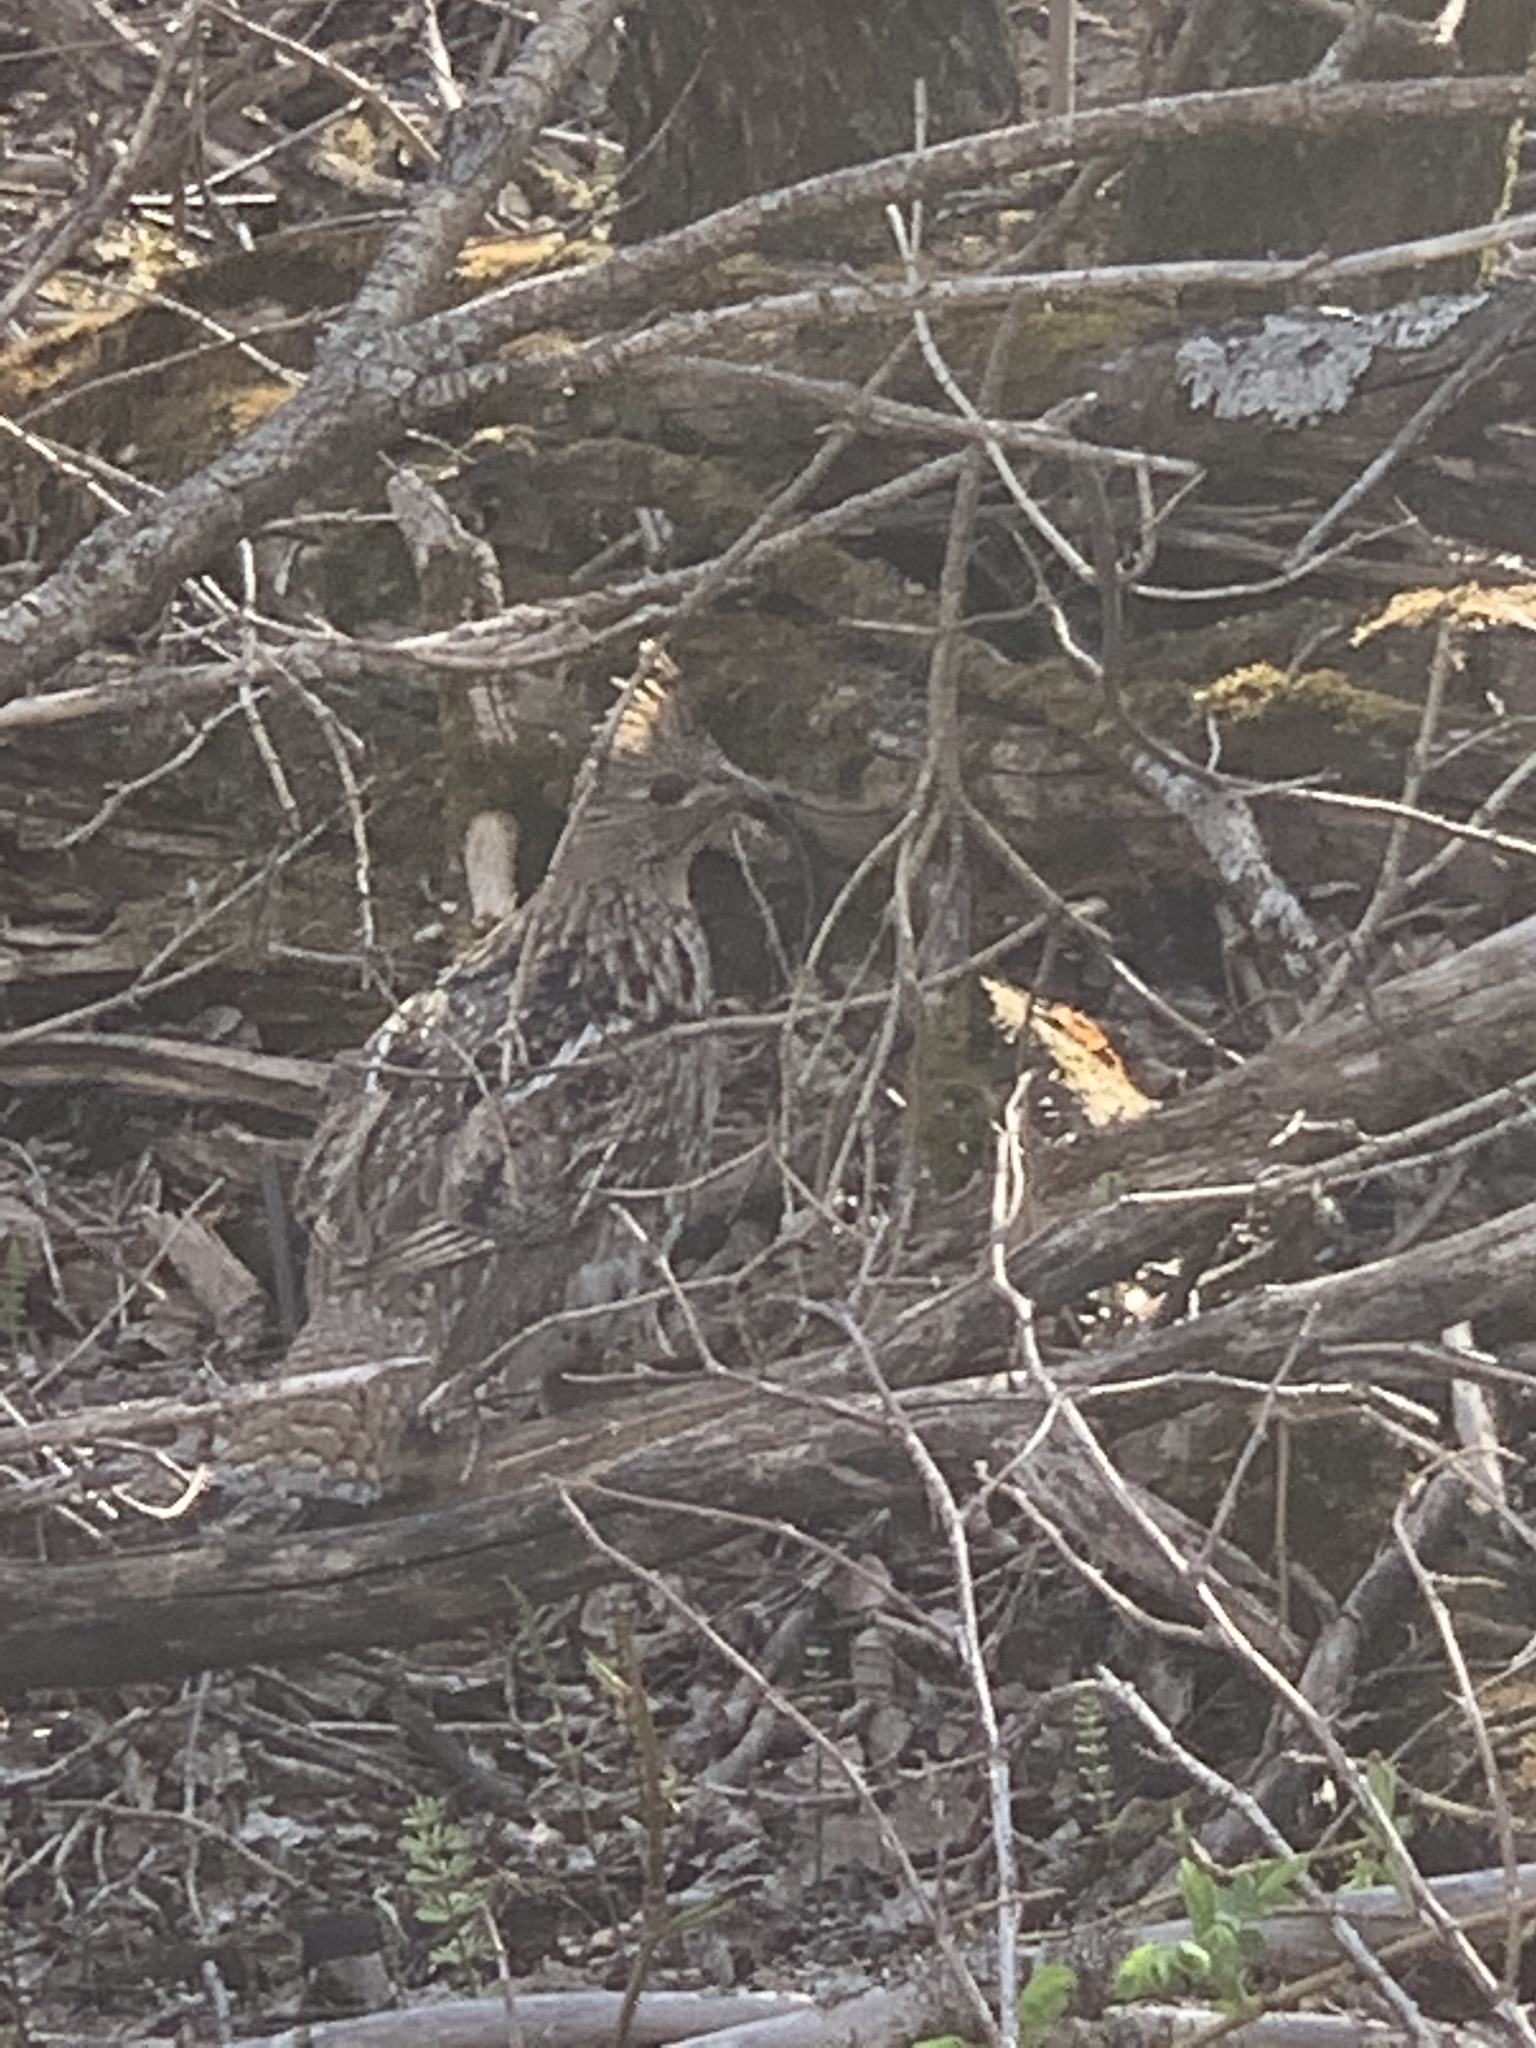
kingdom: Animalia
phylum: Chordata
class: Aves
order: Galliformes
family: Phasianidae
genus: Bonasa
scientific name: Bonasa umbellus
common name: Ruffed grouse
